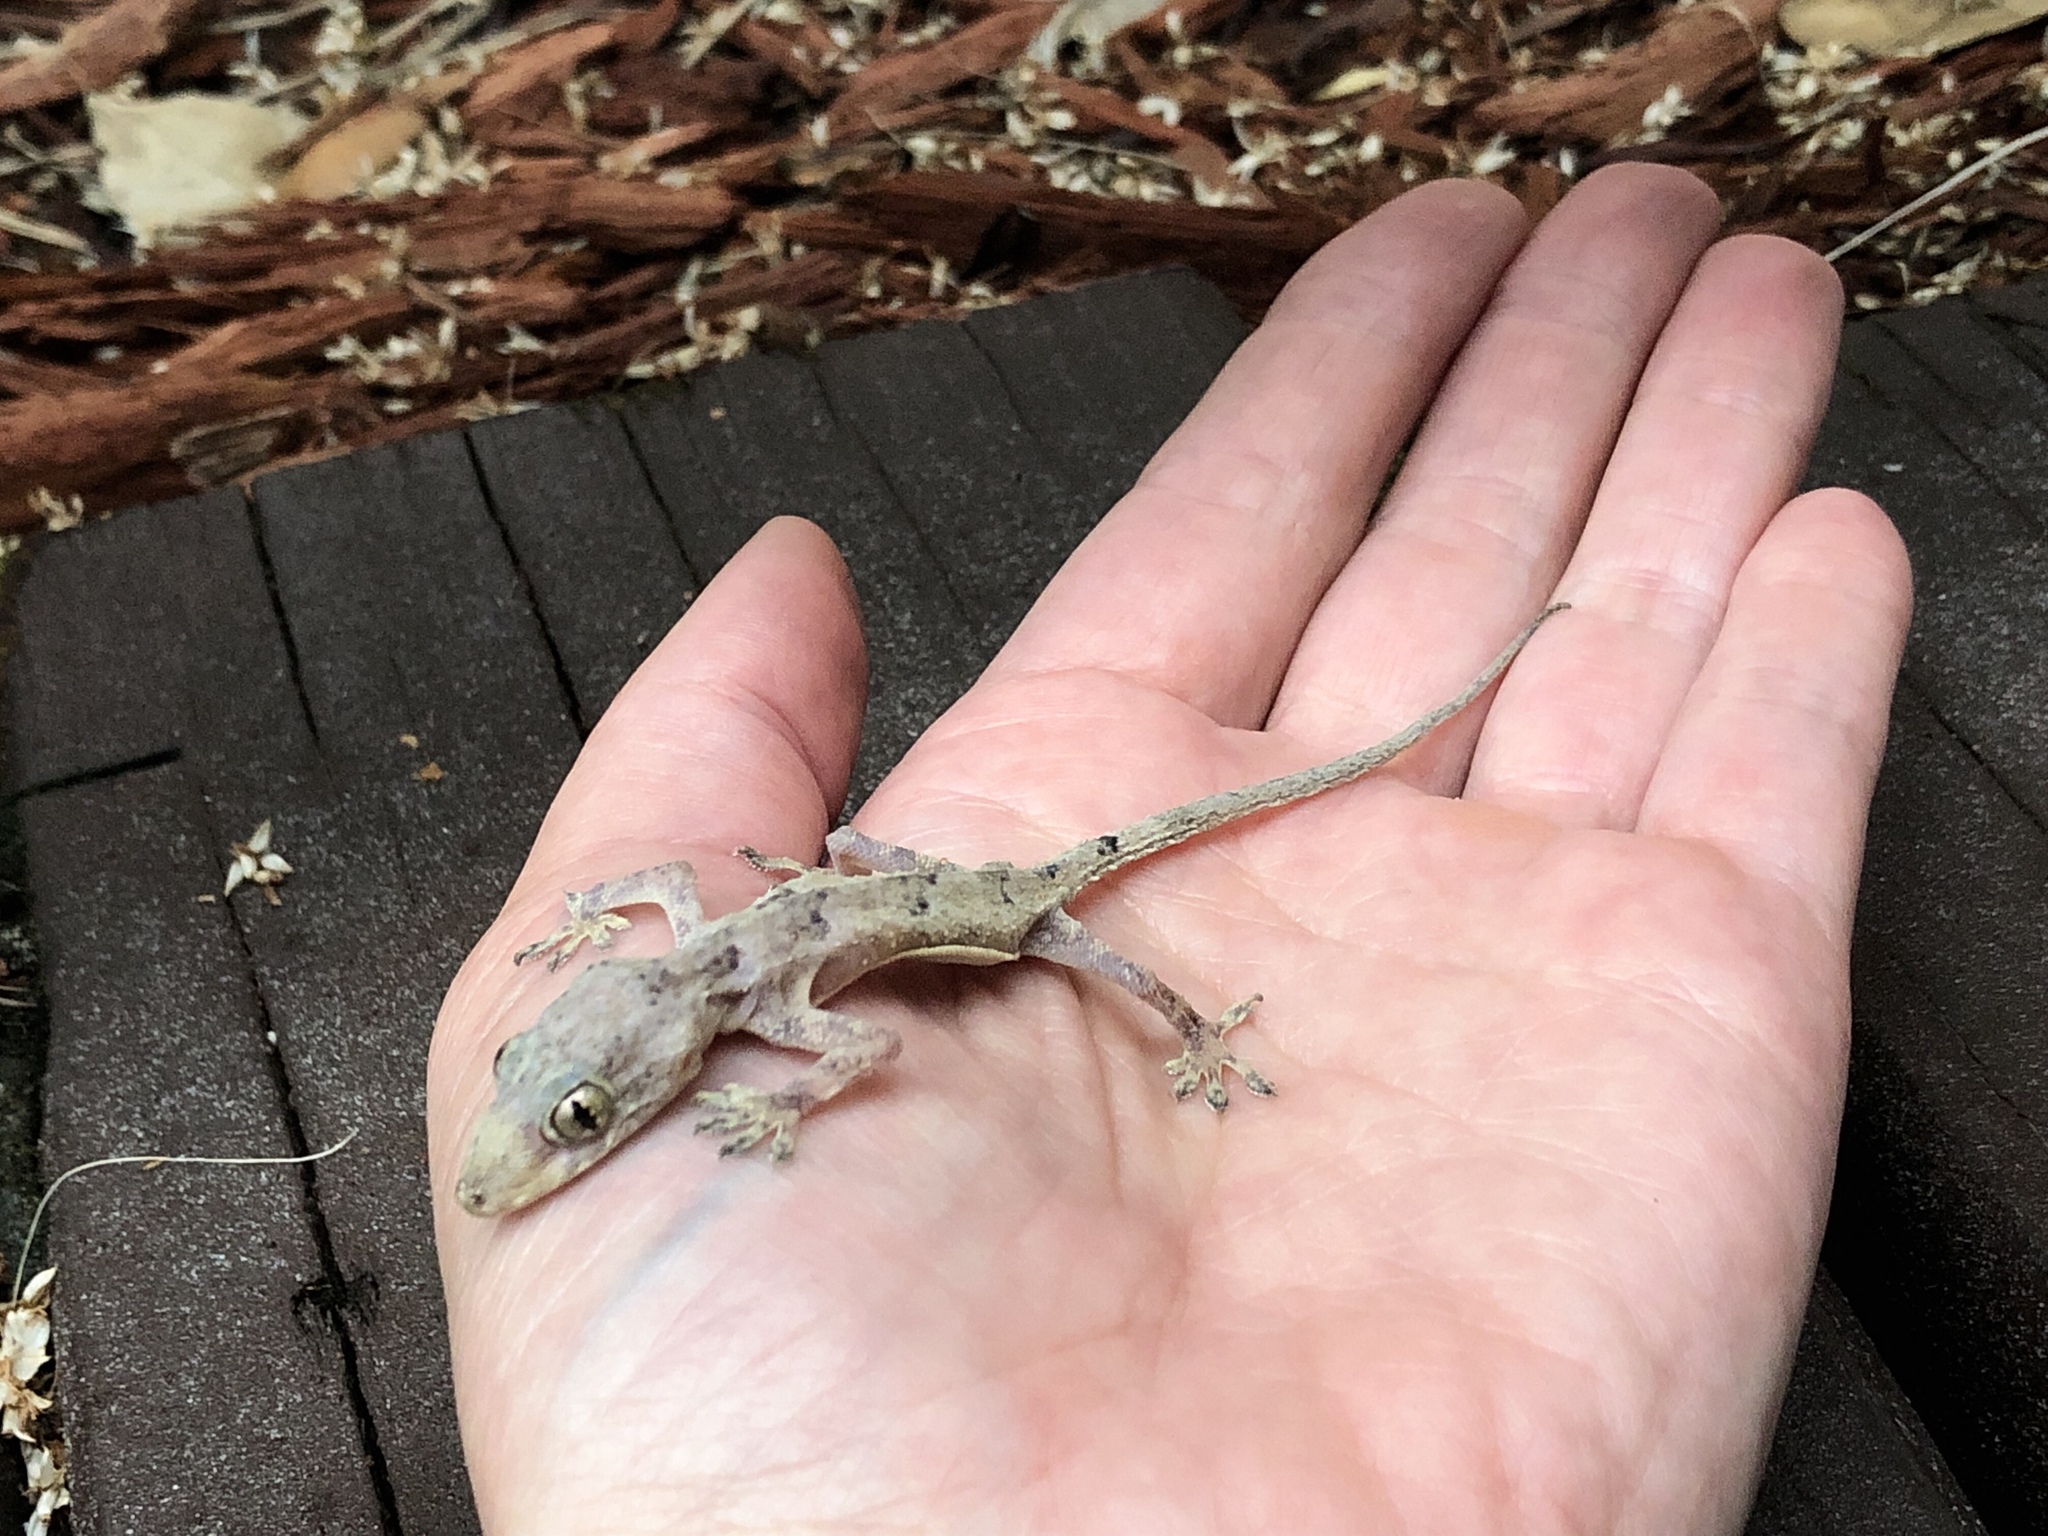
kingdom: Animalia
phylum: Chordata
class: Squamata
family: Gekkonidae
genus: Hemidactylus
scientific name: Hemidactylus mabouia
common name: House gecko
